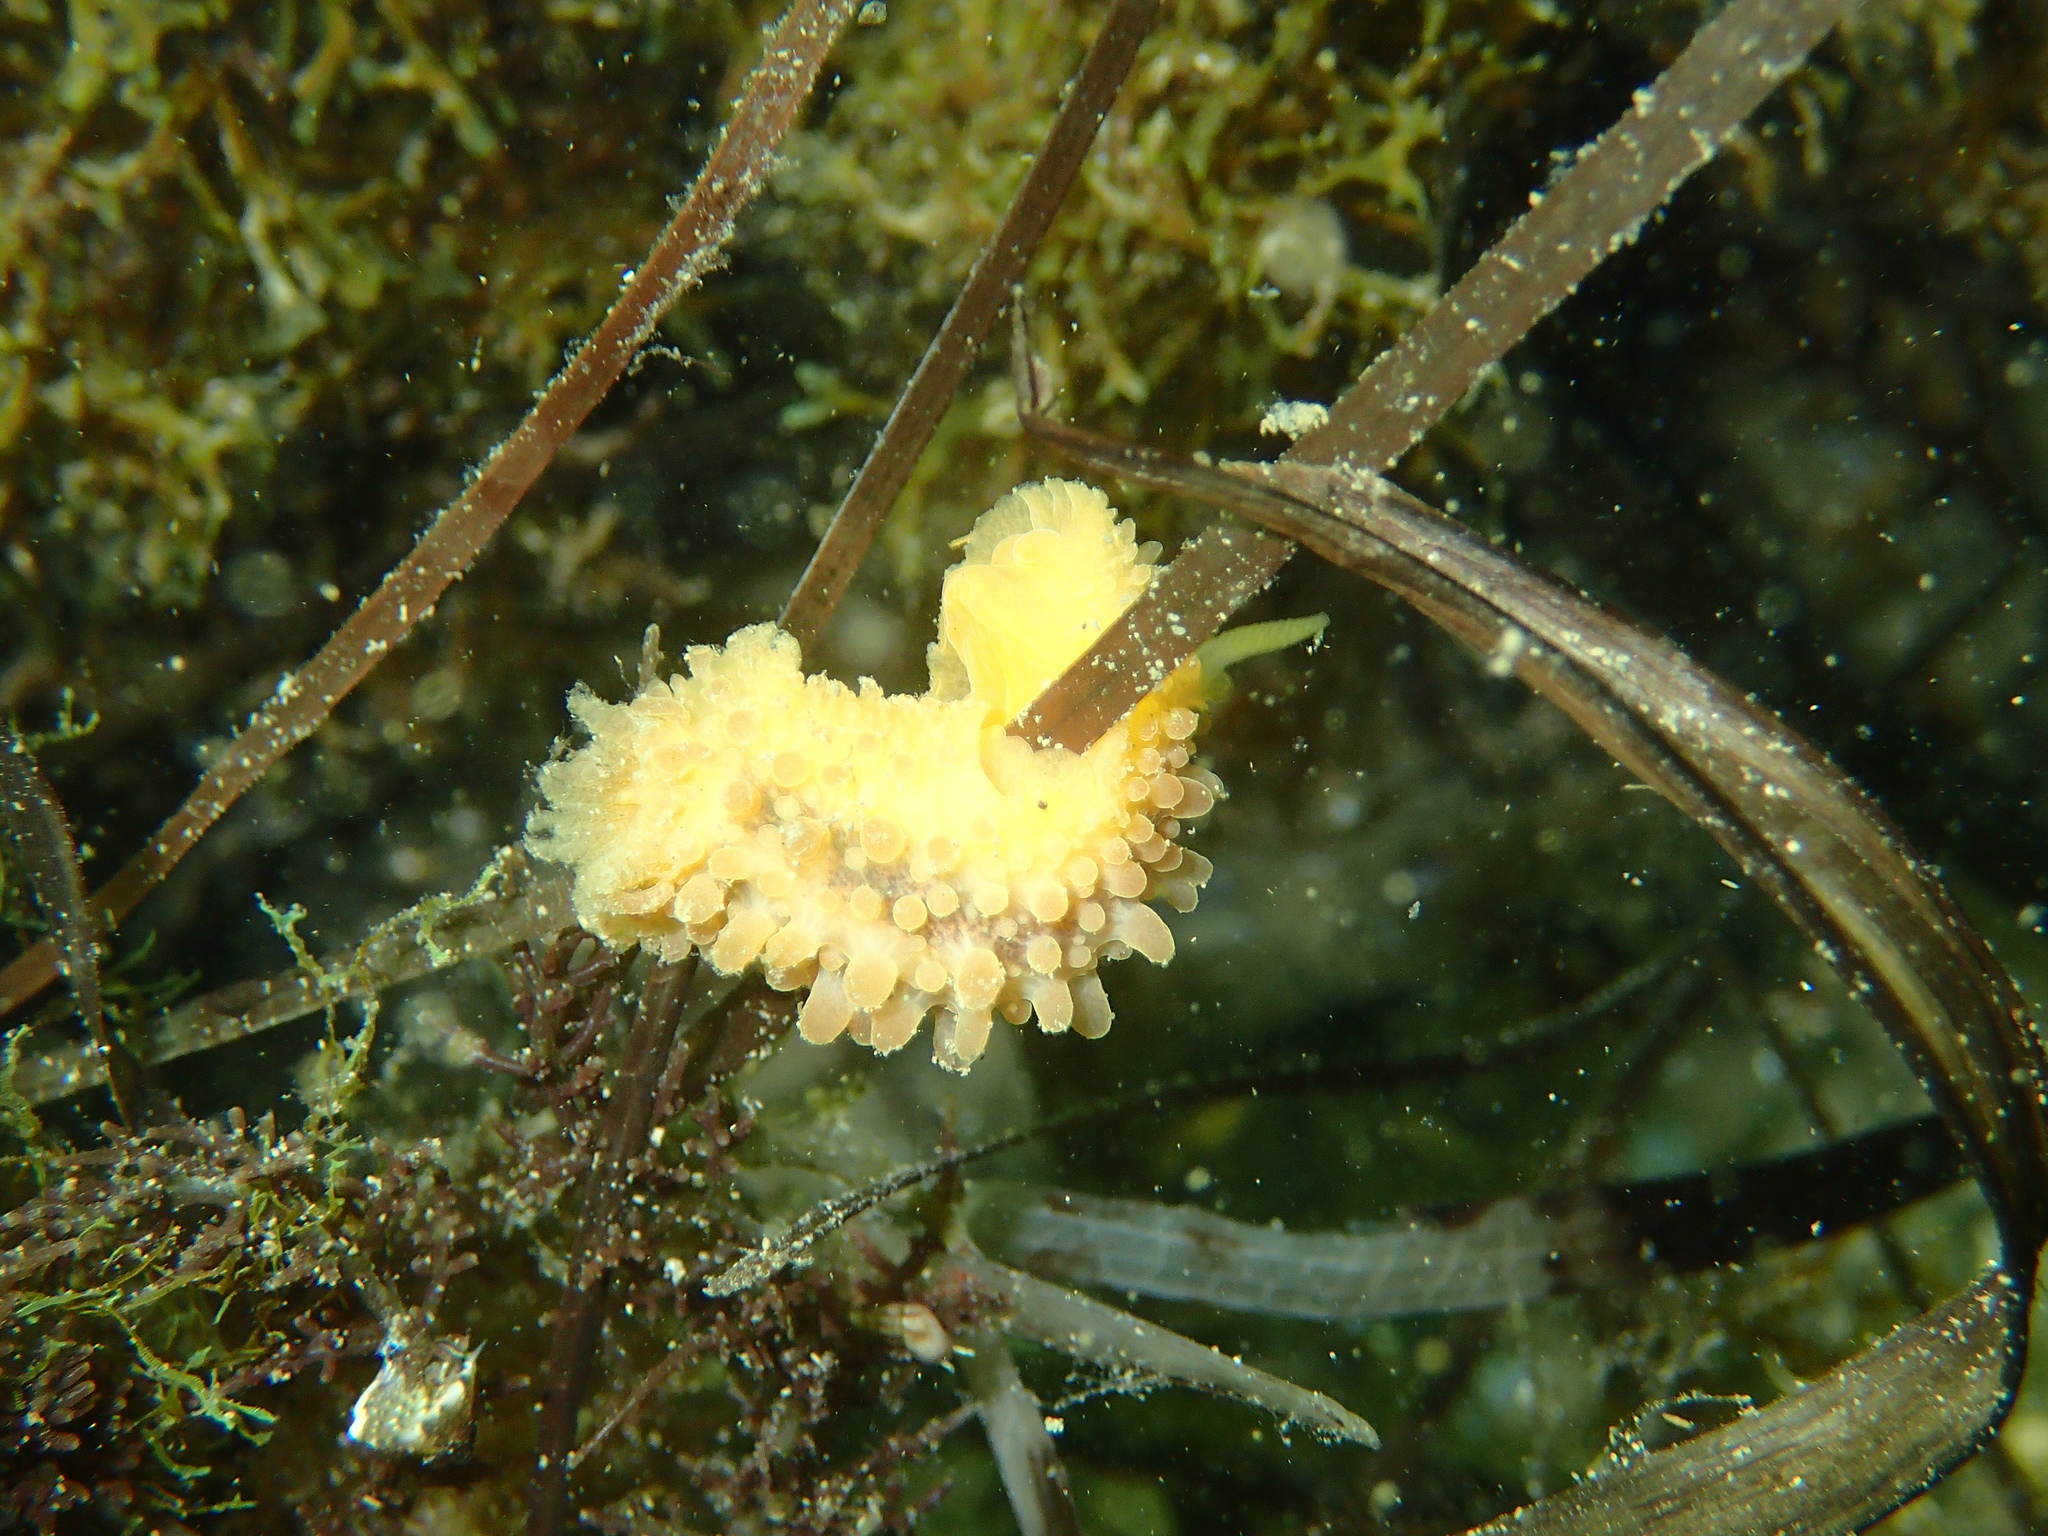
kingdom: Animalia
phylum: Mollusca
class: Gastropoda
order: Nudibranchia
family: Dorididae
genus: Doris
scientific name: Doris verrucosa
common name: Sponge seaslug
